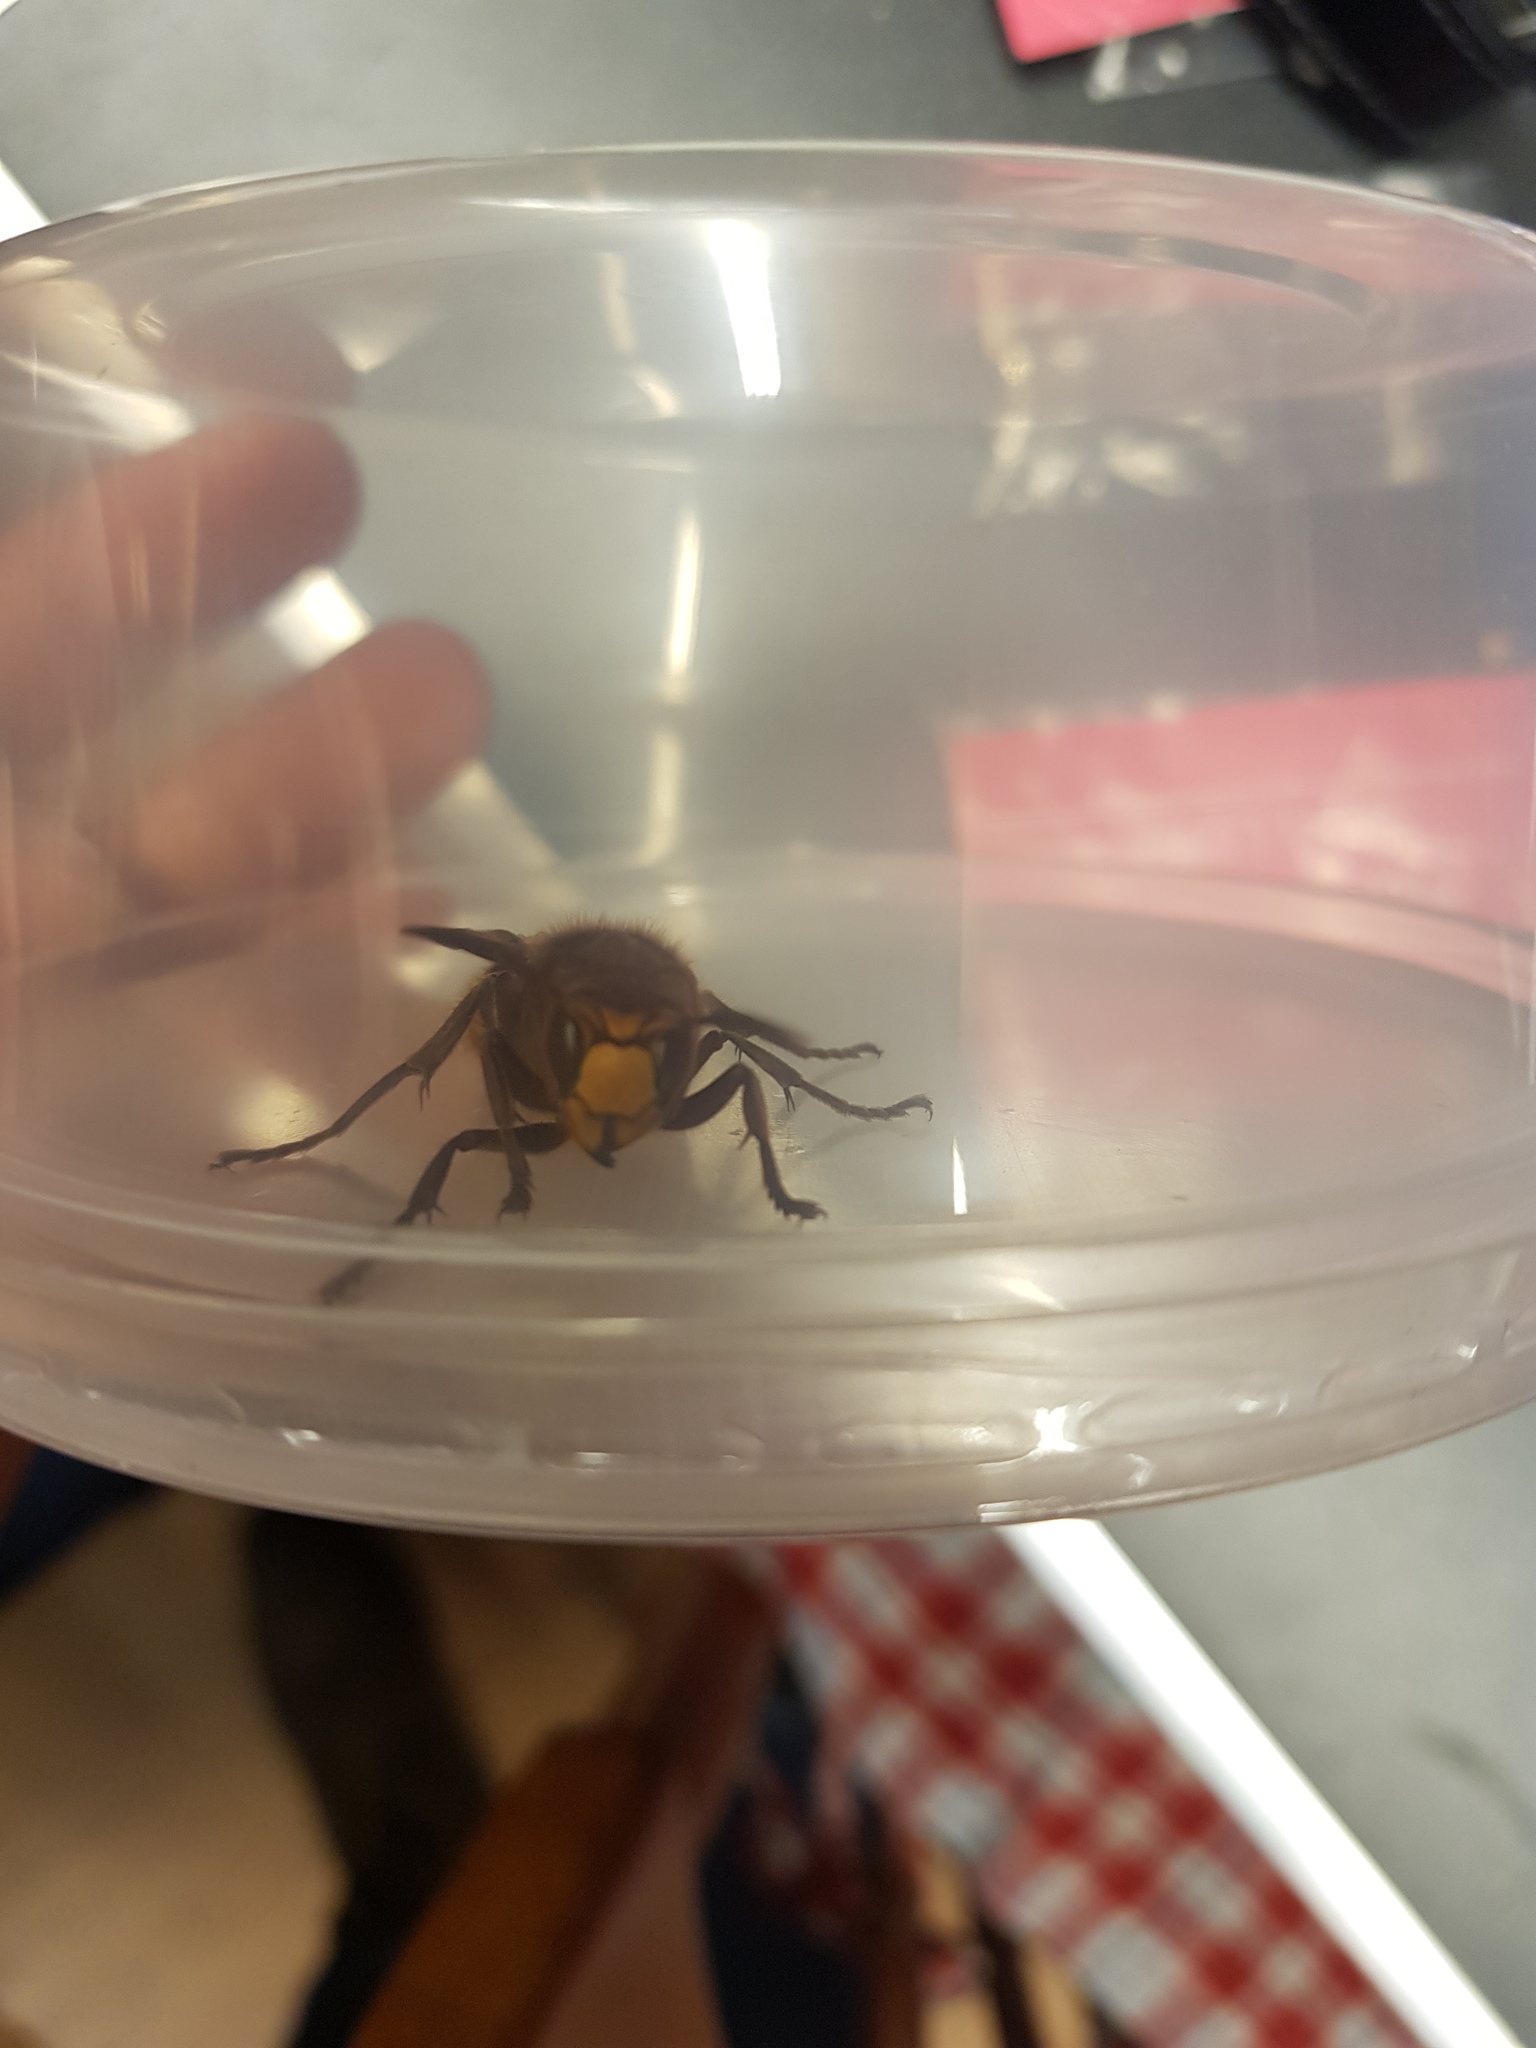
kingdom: Animalia
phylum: Arthropoda
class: Insecta
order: Hymenoptera
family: Vespidae
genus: Vespa
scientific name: Vespa crabro
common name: Hornet
